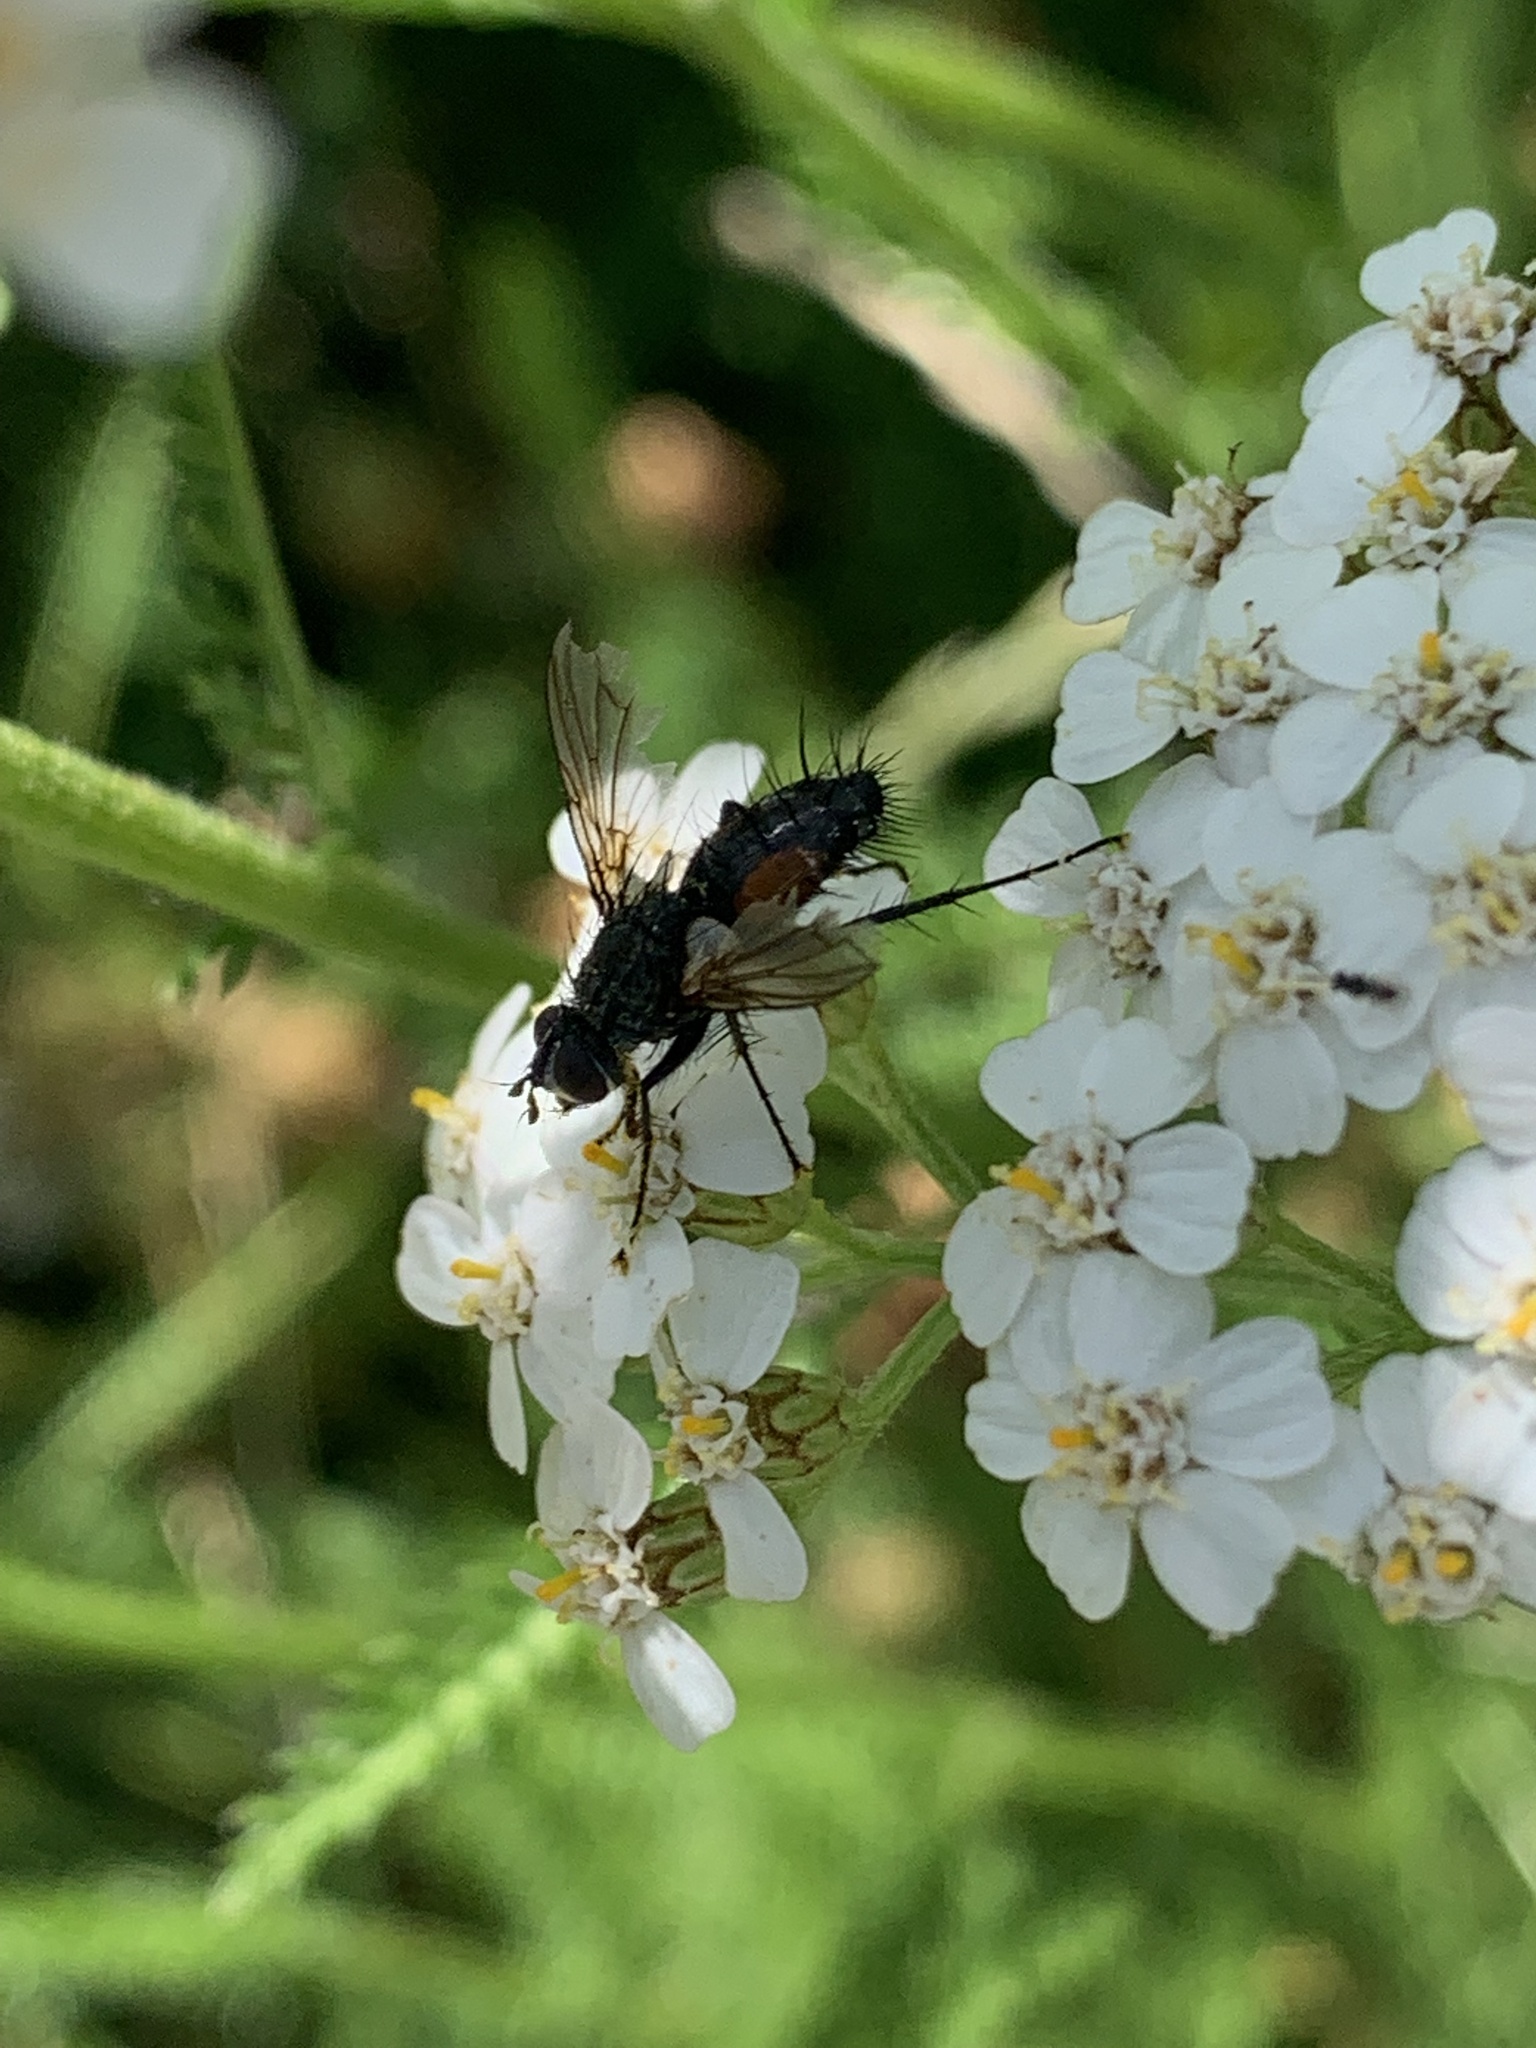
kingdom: Animalia
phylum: Arthropoda
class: Insecta
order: Diptera
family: Tachinidae
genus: Eriothrix
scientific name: Eriothrix rufomaculatus
